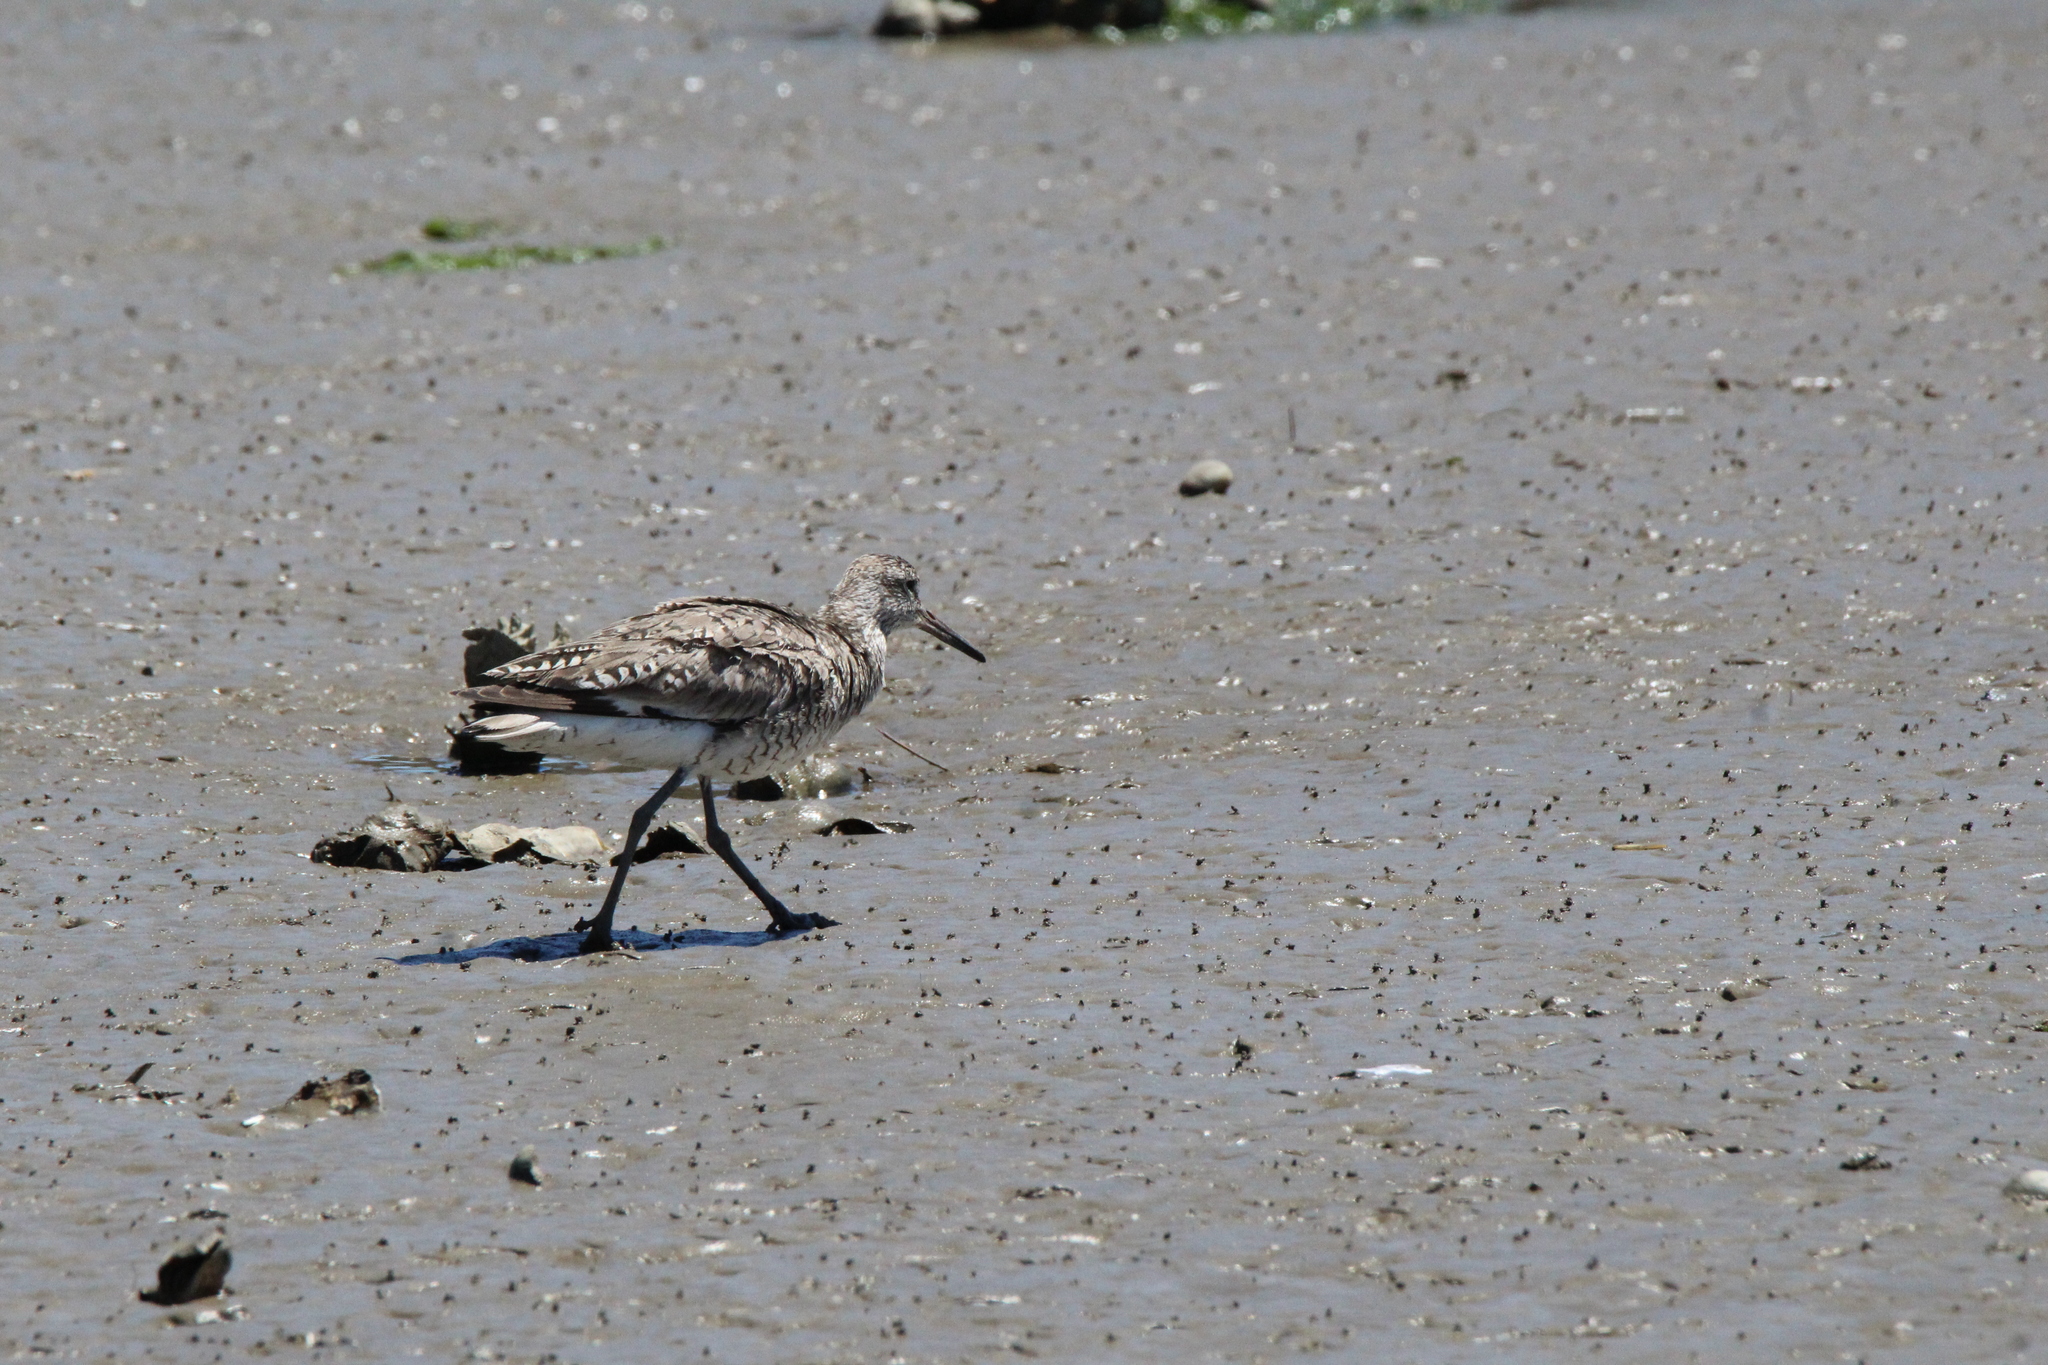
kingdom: Animalia
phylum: Chordata
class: Aves
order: Charadriiformes
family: Scolopacidae
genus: Tringa
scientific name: Tringa semipalmata
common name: Willet
